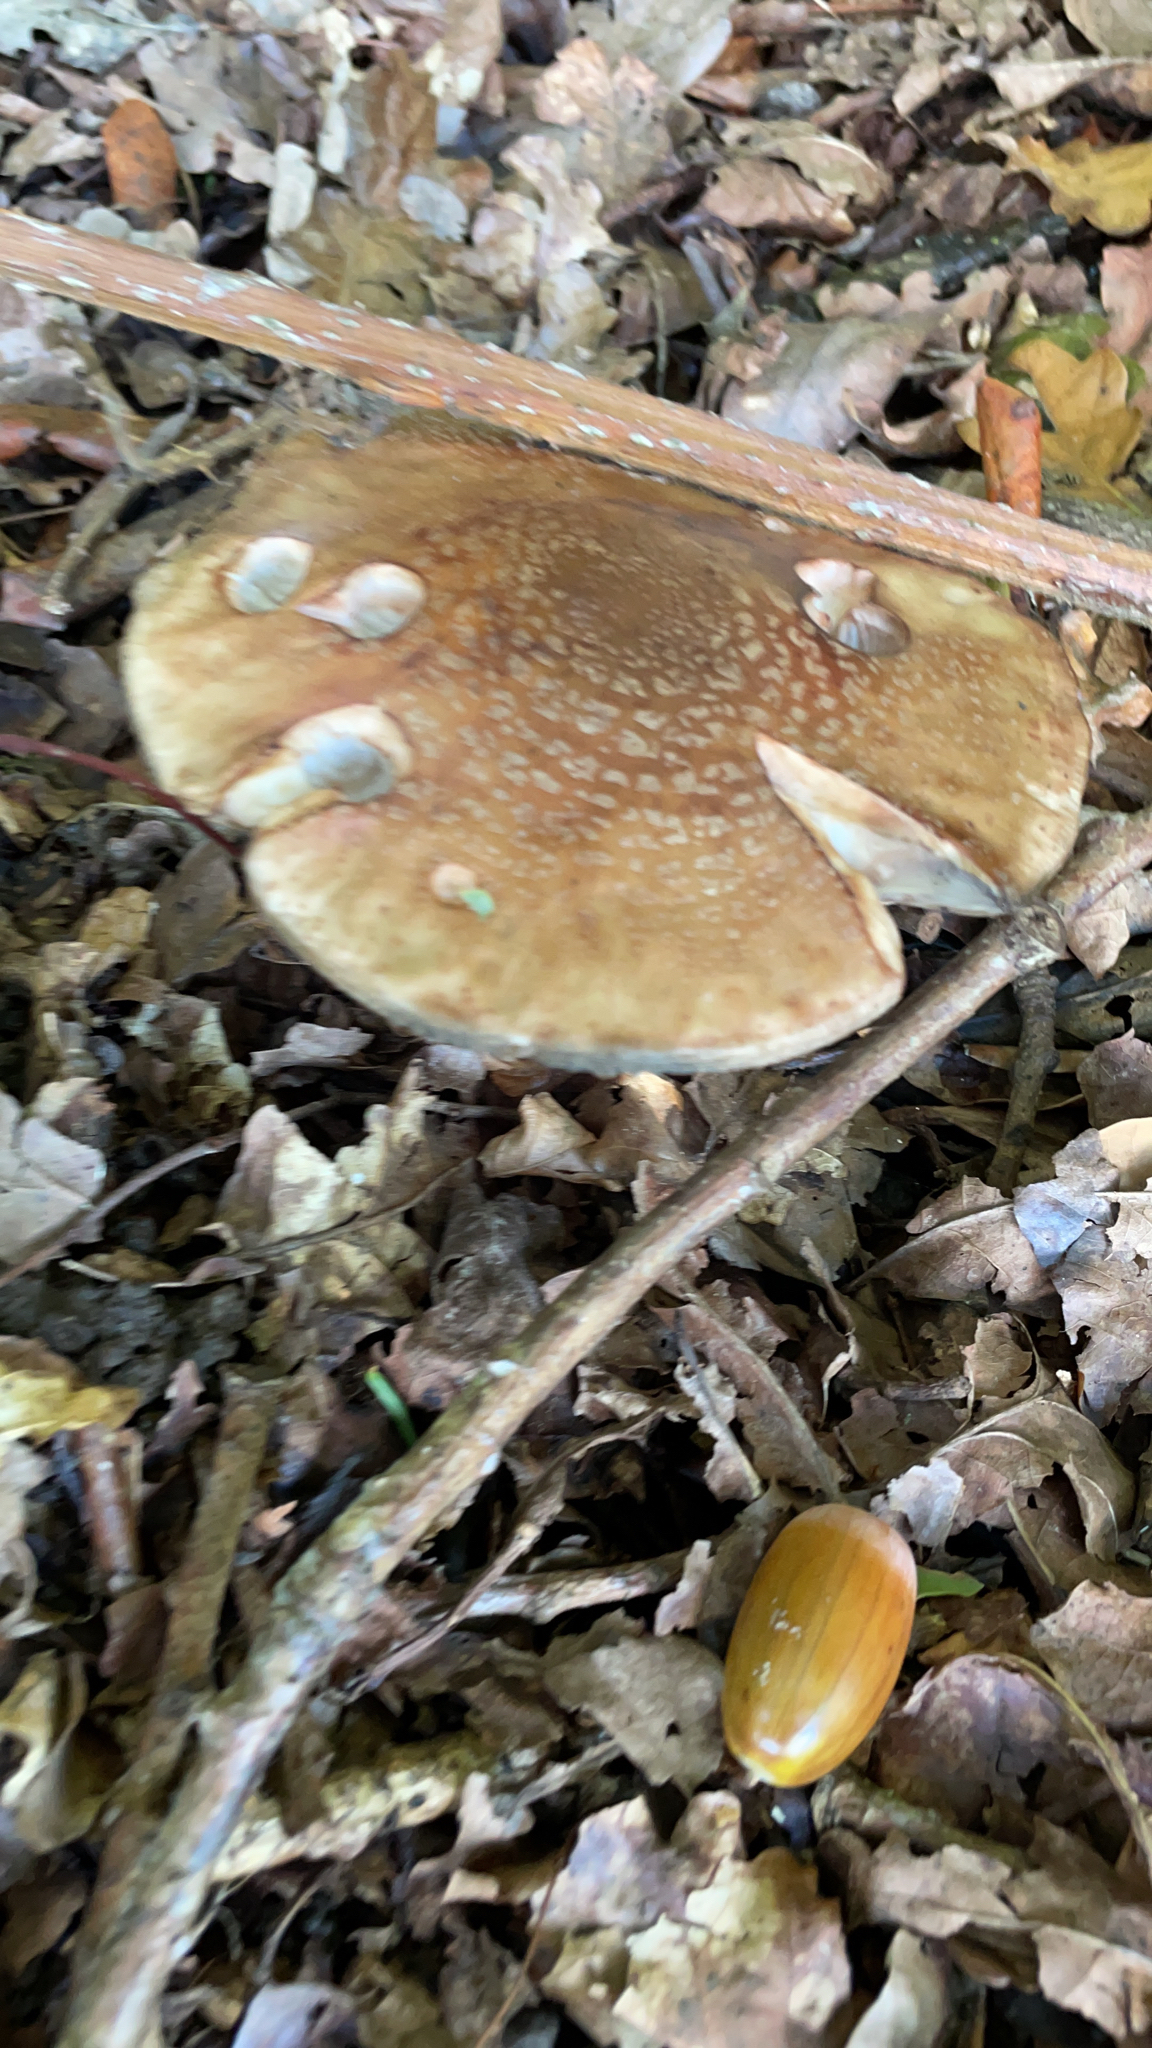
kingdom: Fungi
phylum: Basidiomycota
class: Agaricomycetes
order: Agaricales
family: Amanitaceae
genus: Amanita
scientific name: Amanita rubescens
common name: Blusher
